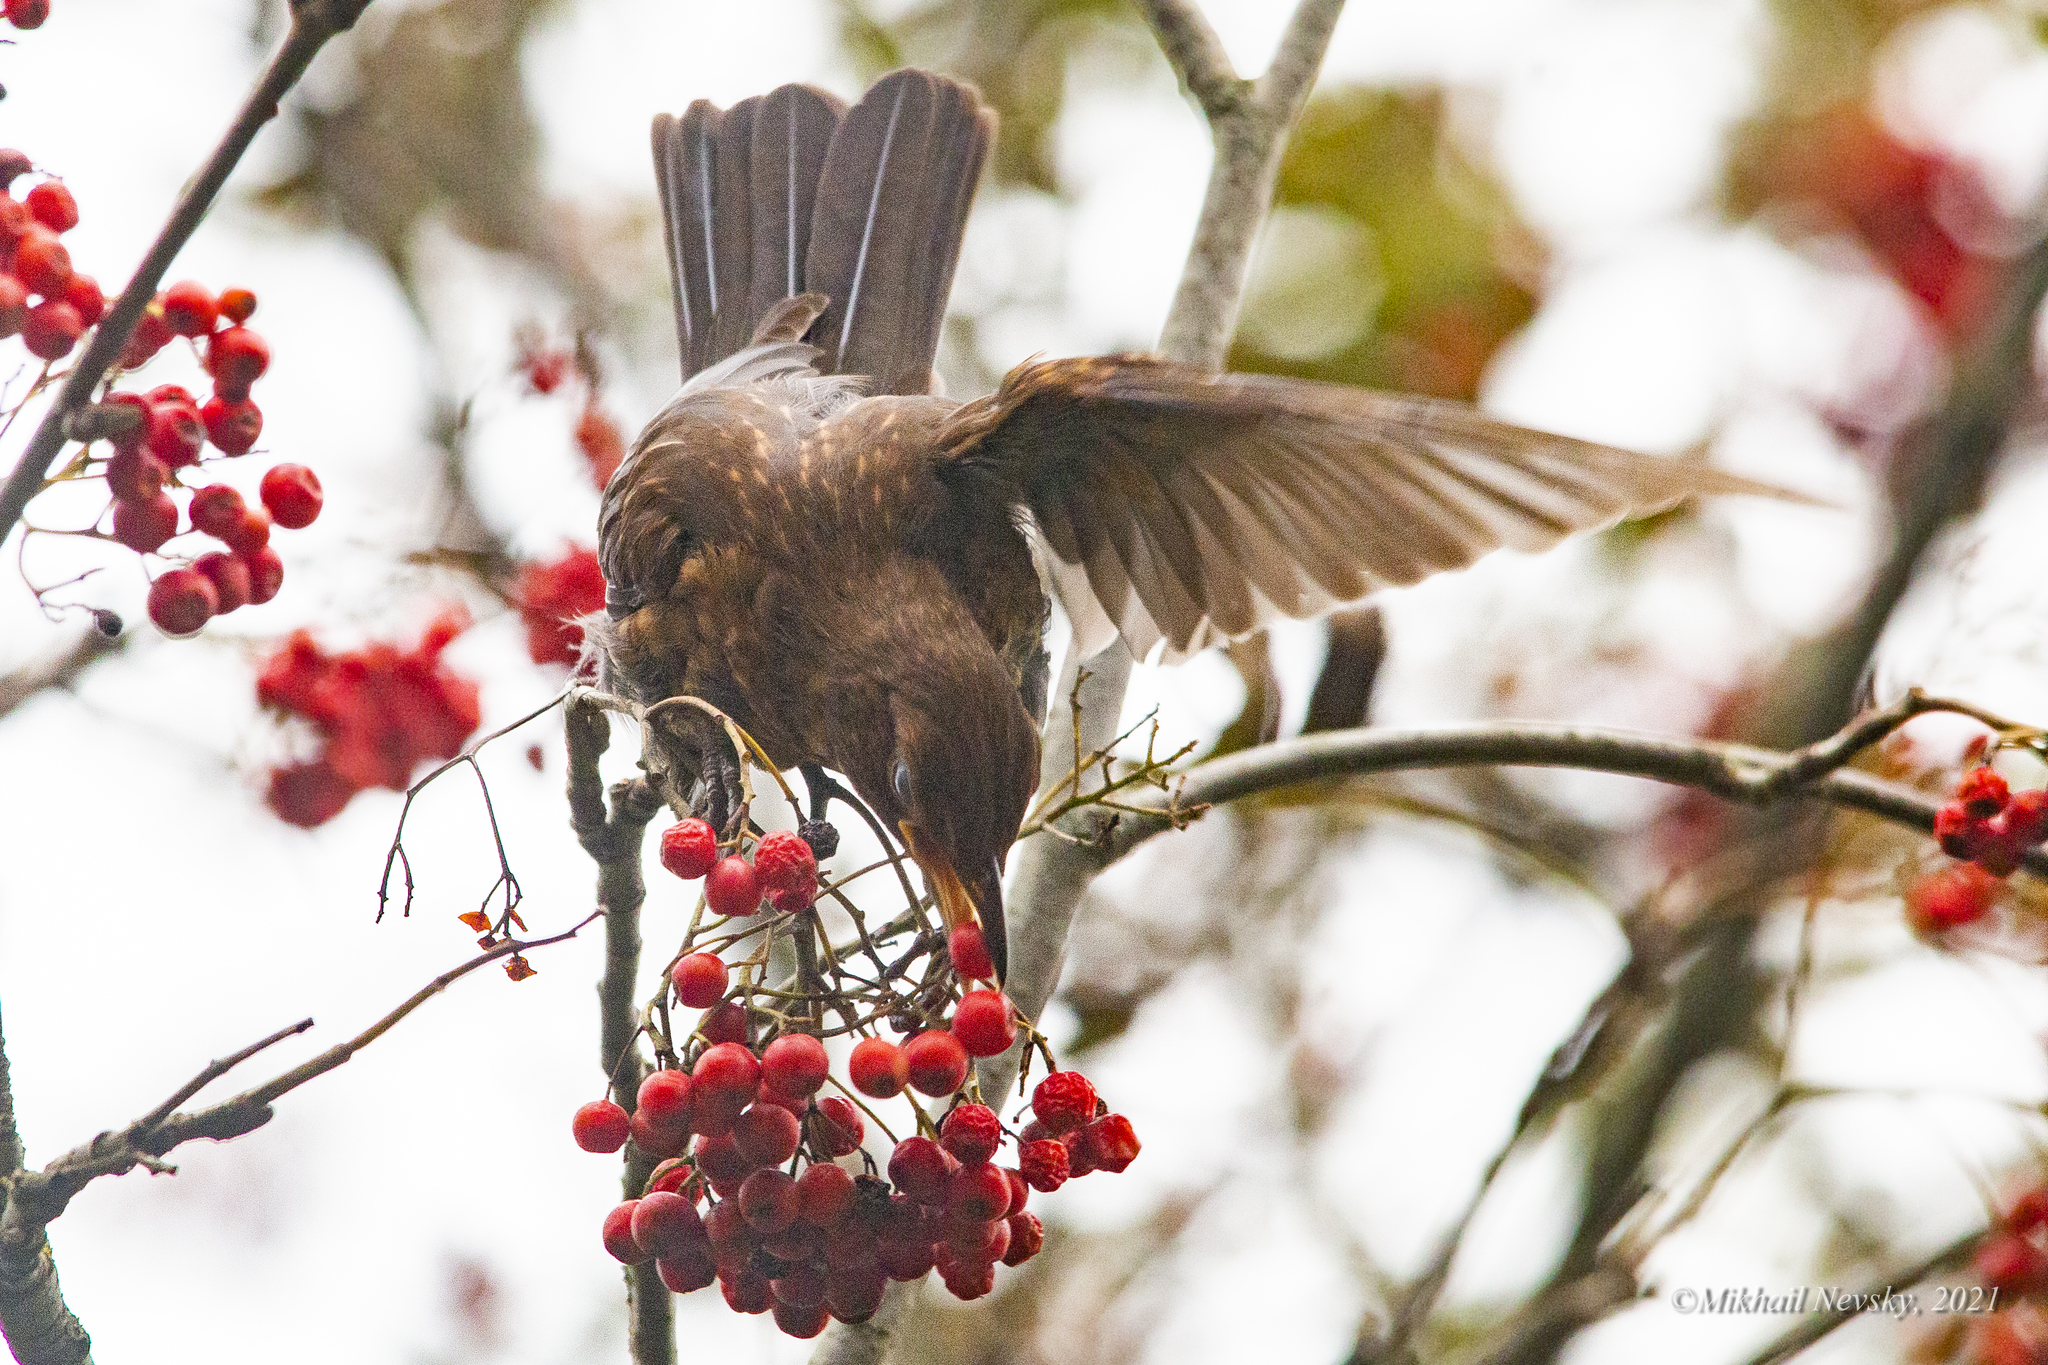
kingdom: Animalia
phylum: Chordata
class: Aves
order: Passeriformes
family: Turdidae
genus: Turdus
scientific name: Turdus merula
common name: Common blackbird
